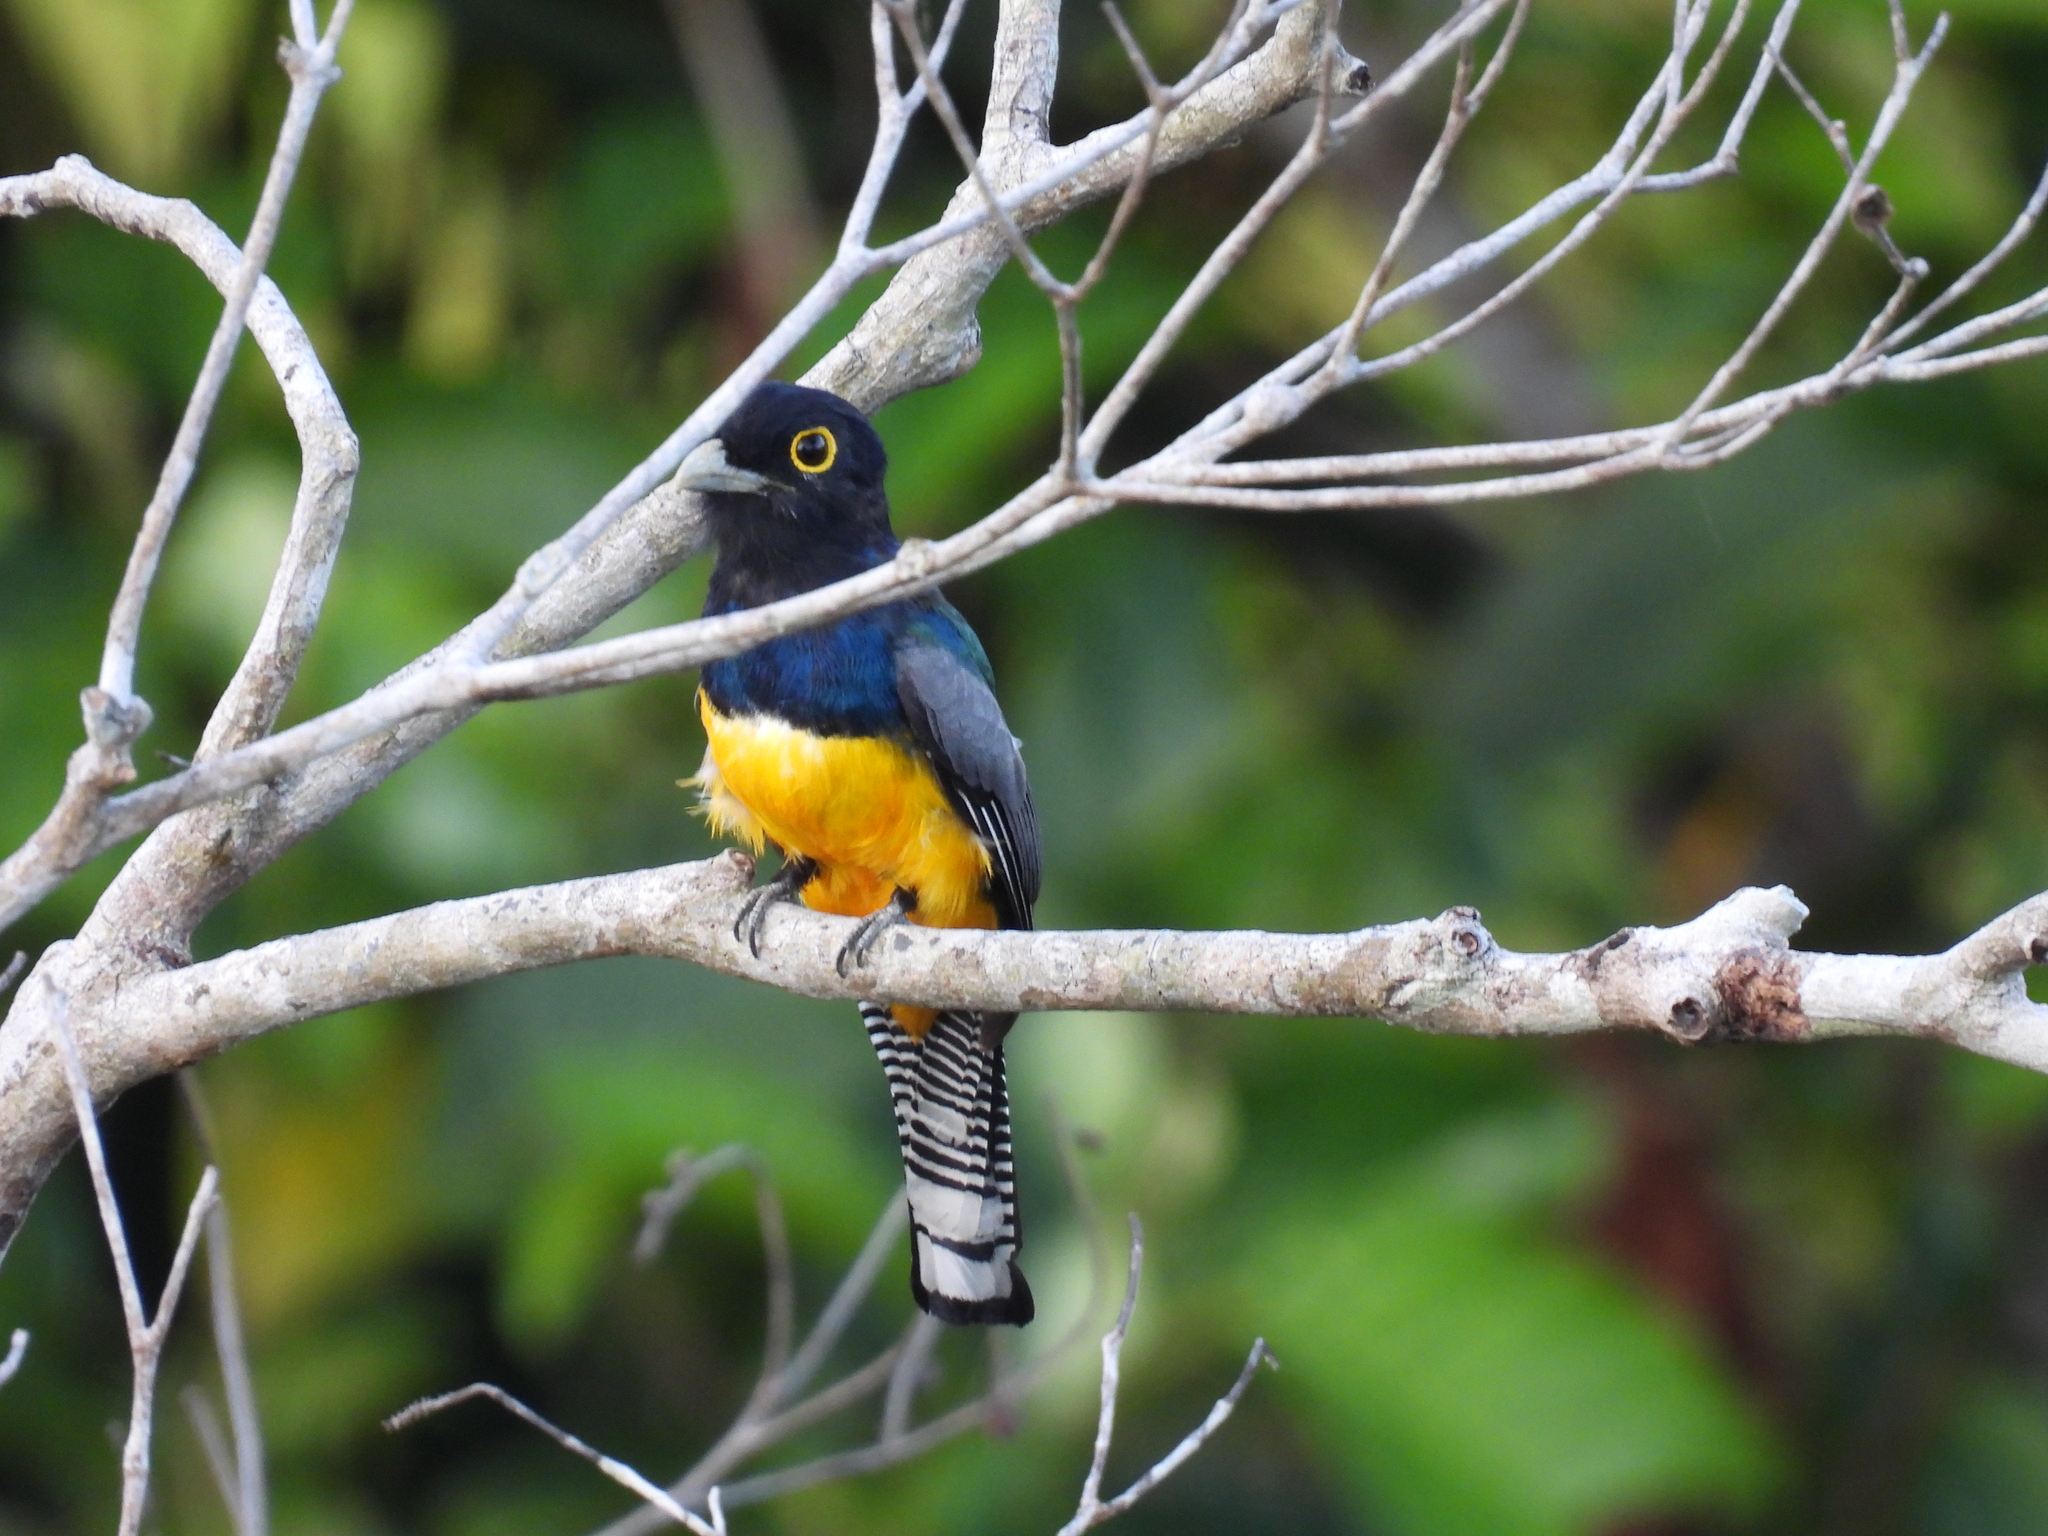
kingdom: Animalia
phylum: Chordata
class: Aves
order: Trogoniformes
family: Trogonidae
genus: Trogon
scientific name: Trogon caligatus
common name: Gartered trogon
